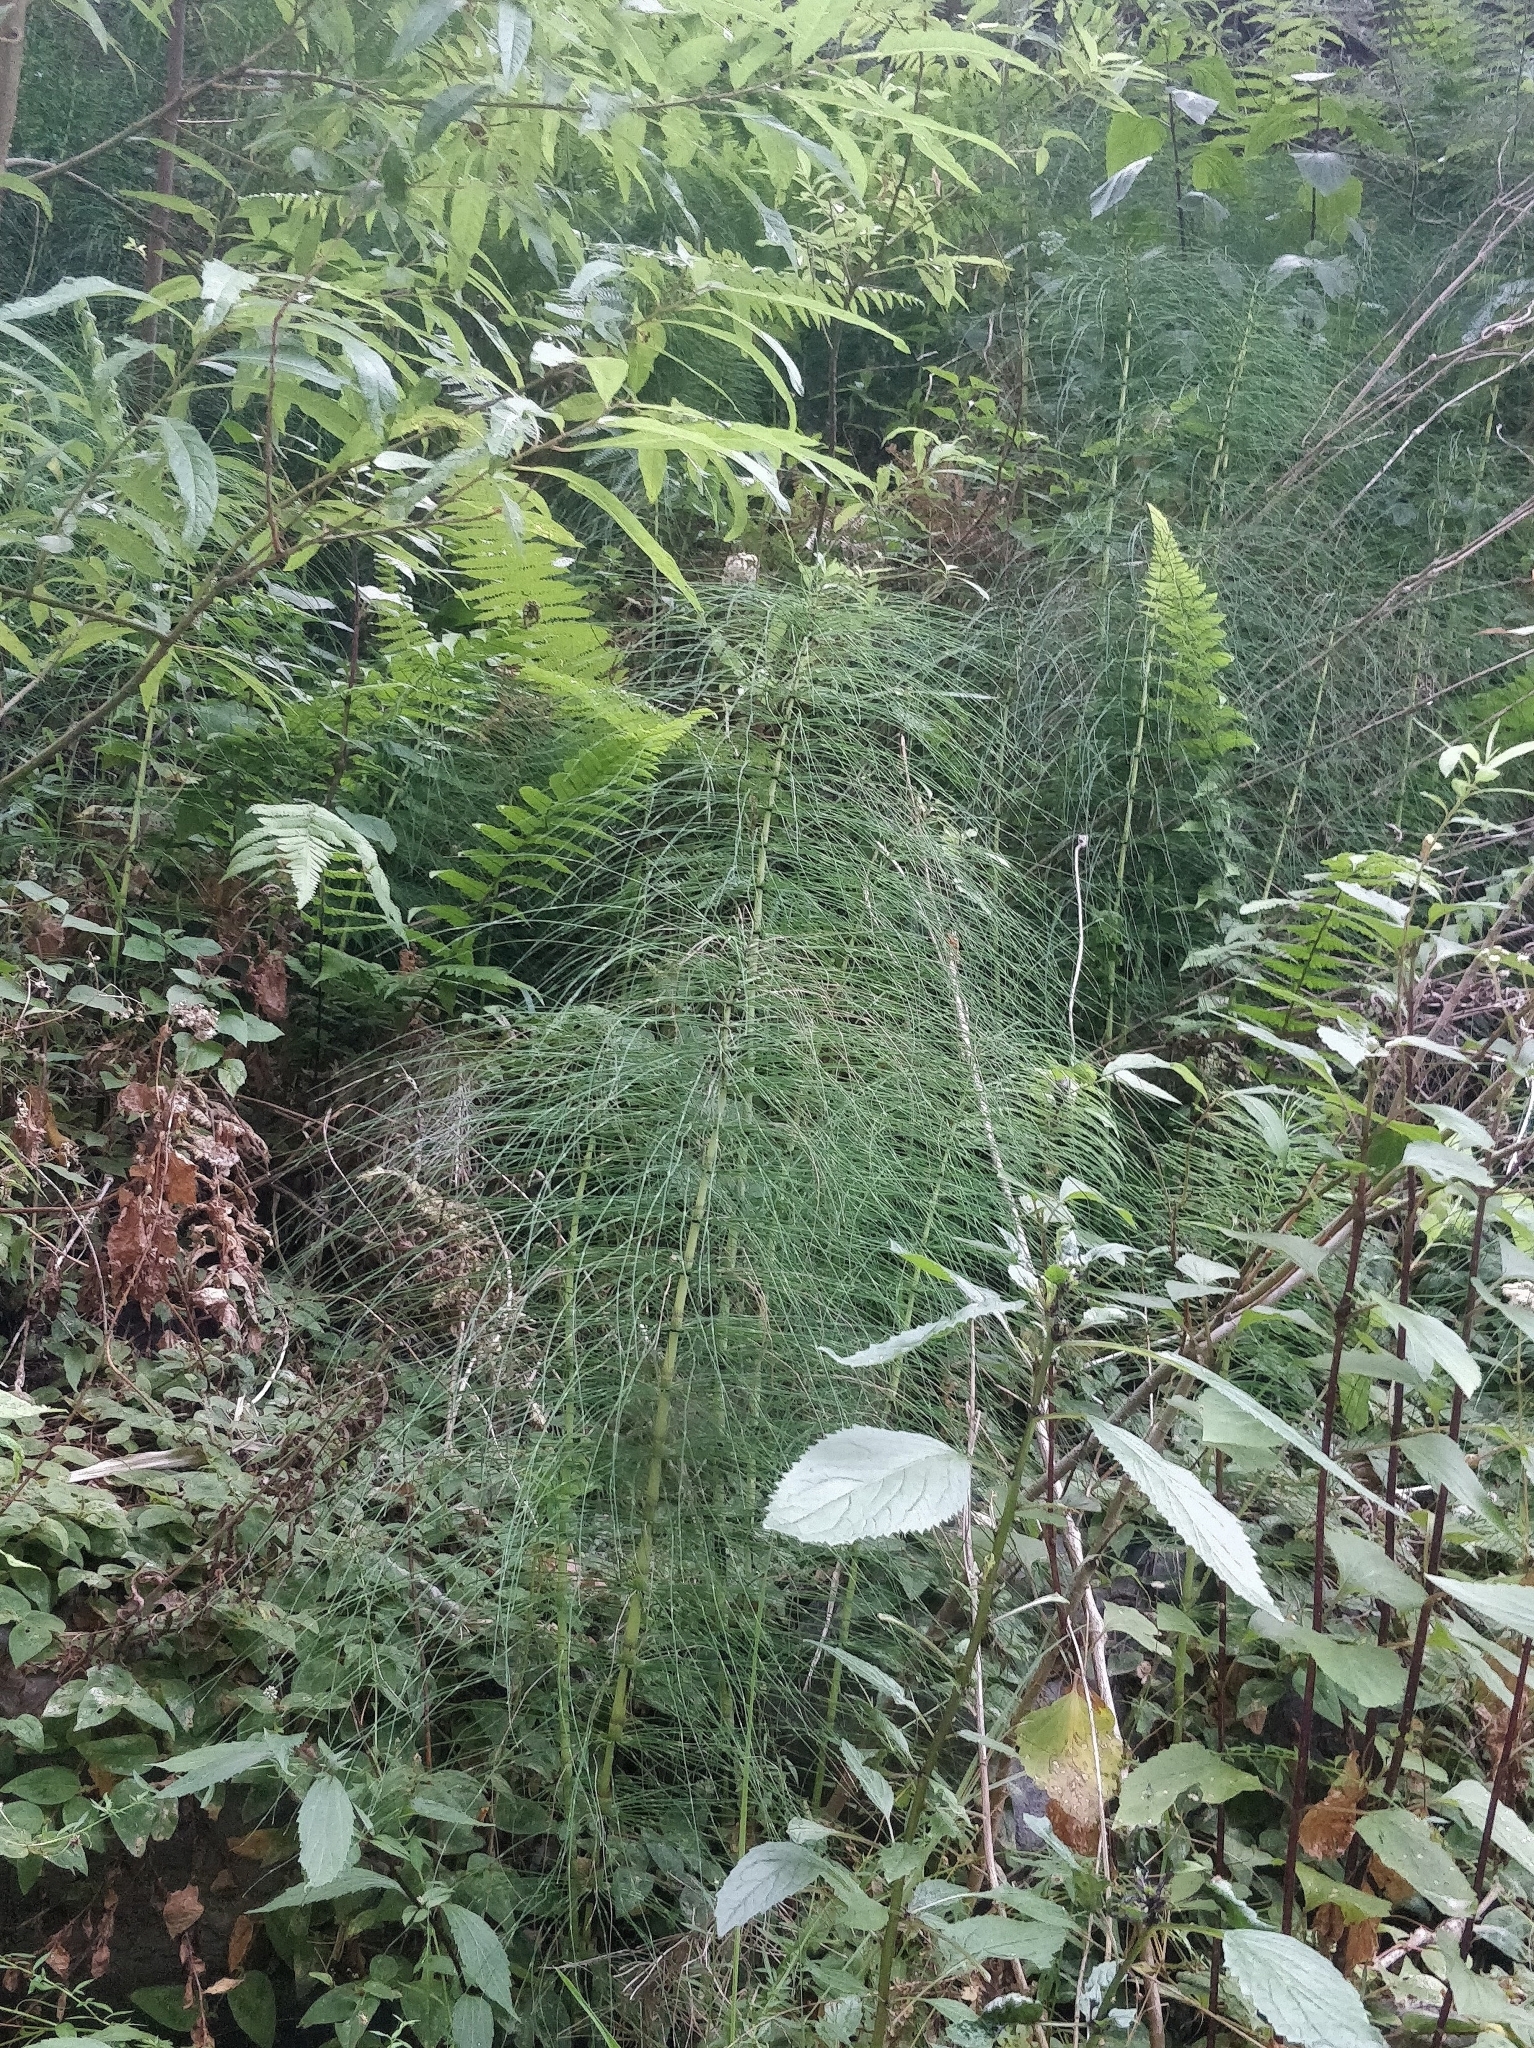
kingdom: Plantae
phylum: Tracheophyta
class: Polypodiopsida
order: Equisetales
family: Equisetaceae
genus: Equisetum
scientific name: Equisetum telmateia
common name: Great horsetail
